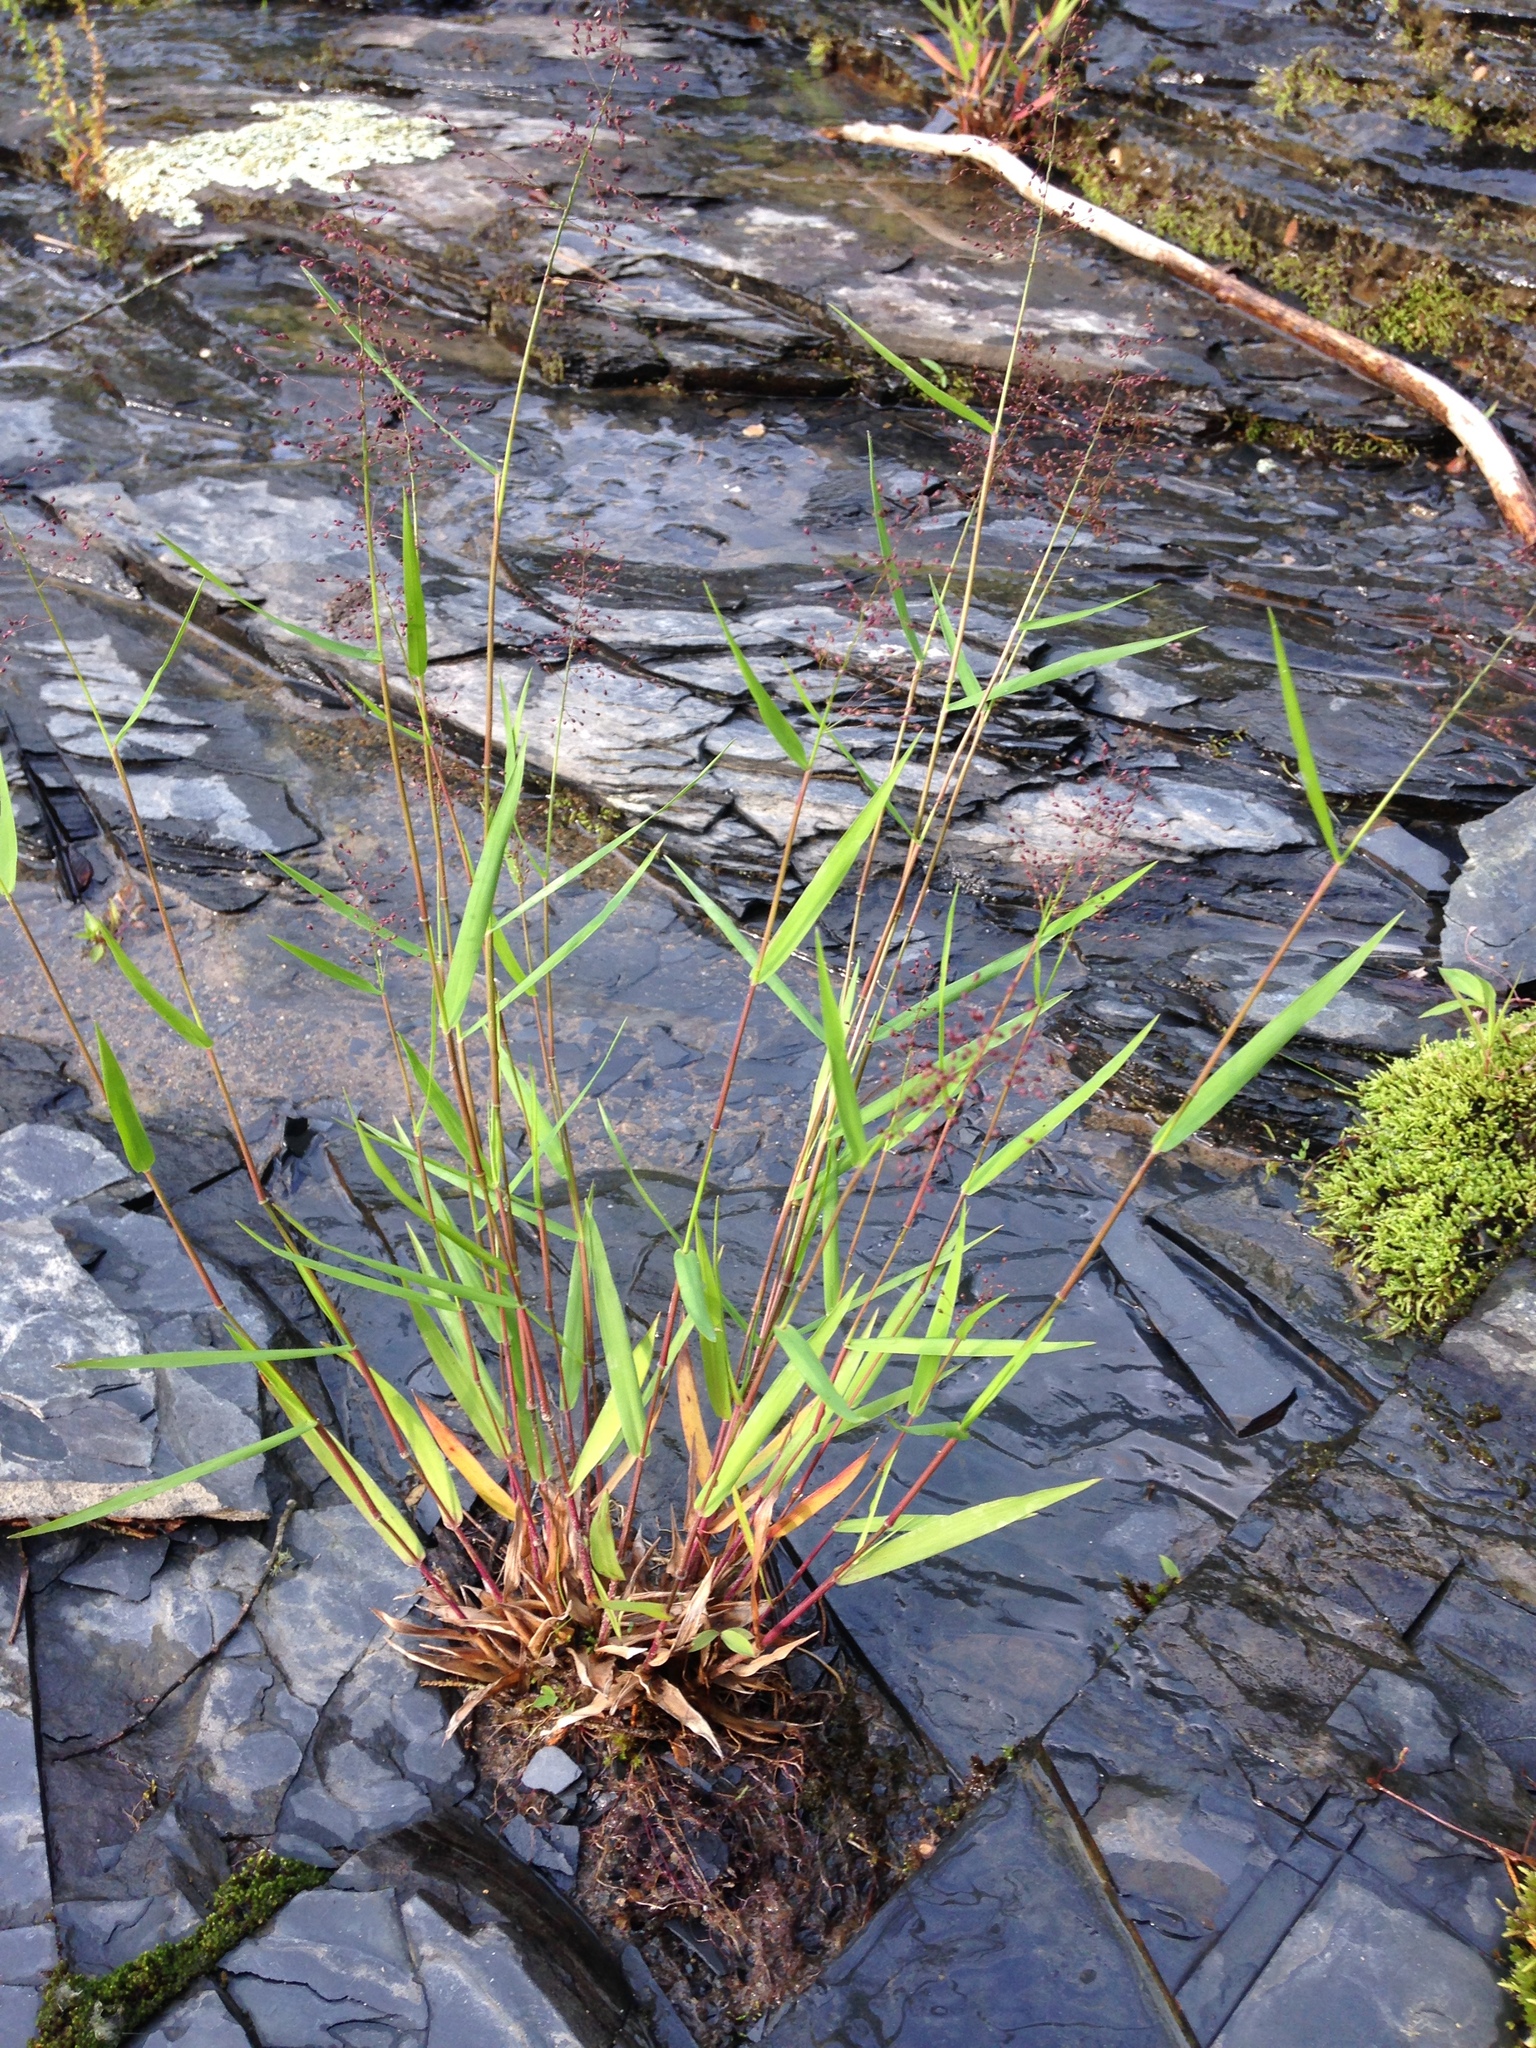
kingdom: Plantae
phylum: Tracheophyta
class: Liliopsida
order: Poales
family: Poaceae
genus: Dichanthelium
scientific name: Dichanthelium lindheimeri
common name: Lindheimer's panicgrass
